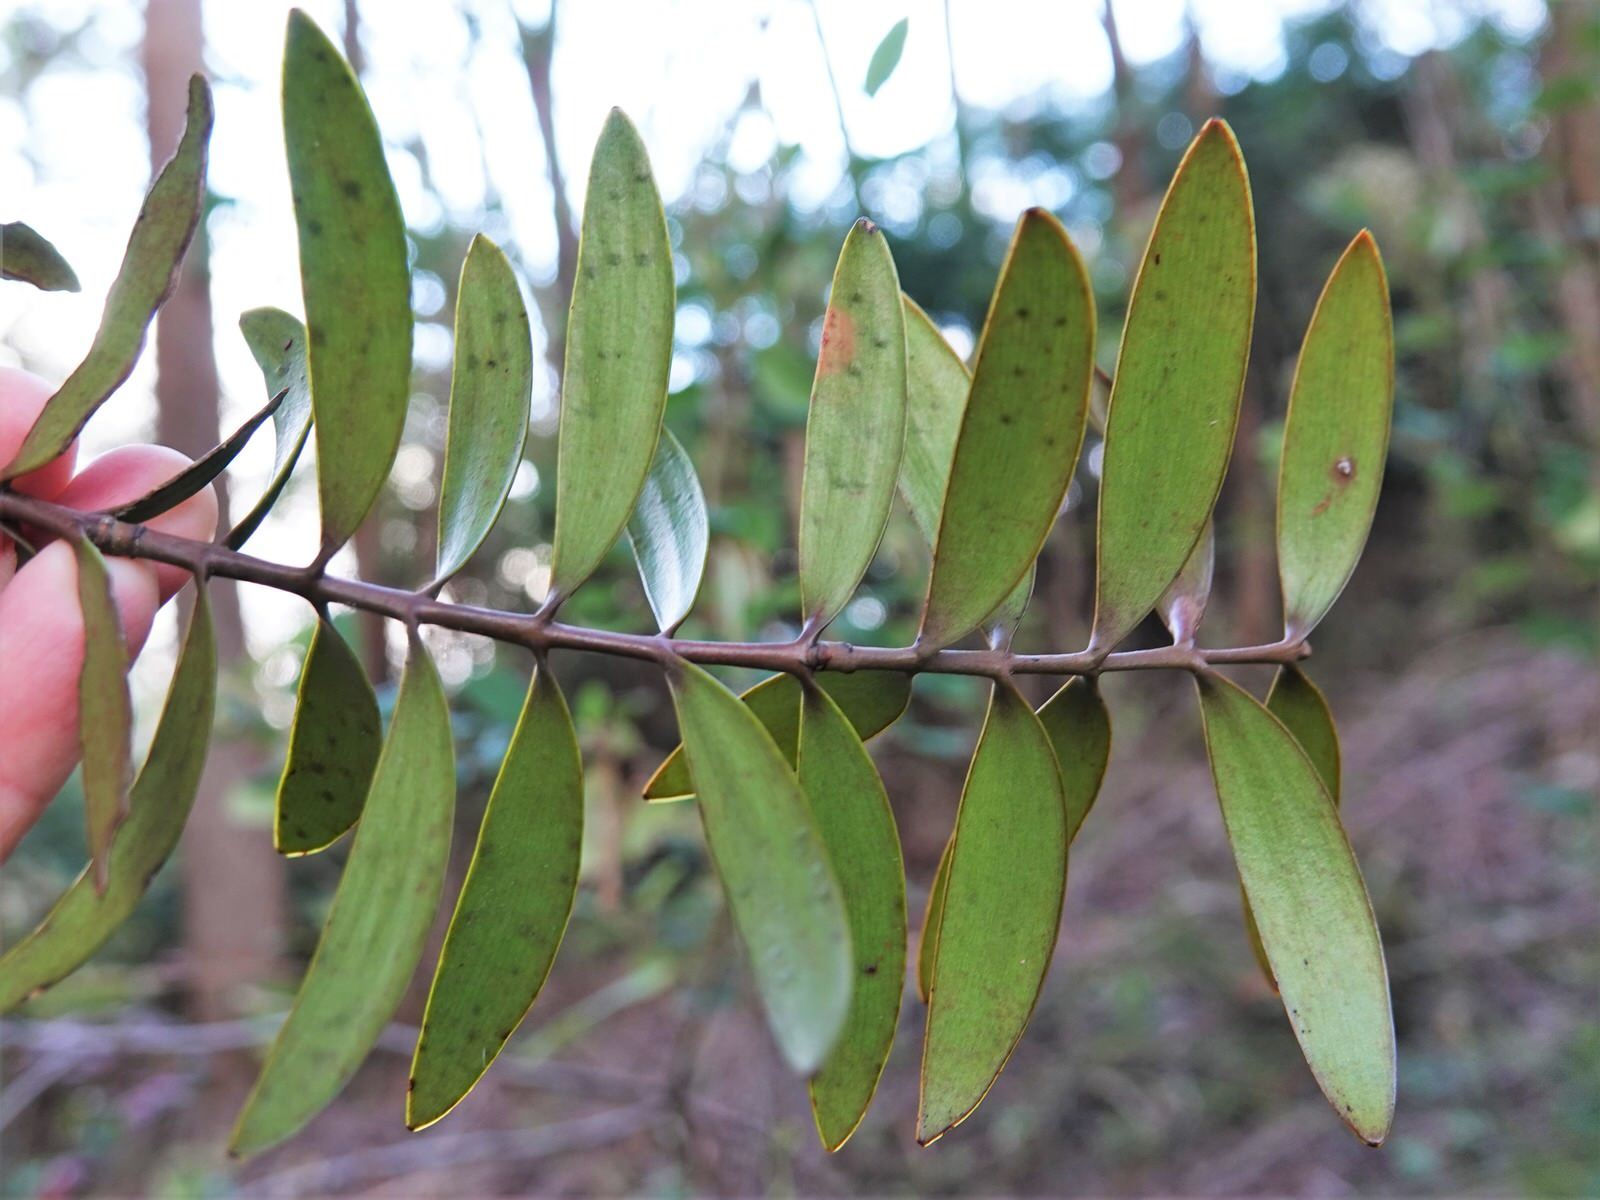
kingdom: Plantae
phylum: Tracheophyta
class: Pinopsida
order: Pinales
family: Araucariaceae
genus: Agathis
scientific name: Agathis australis
